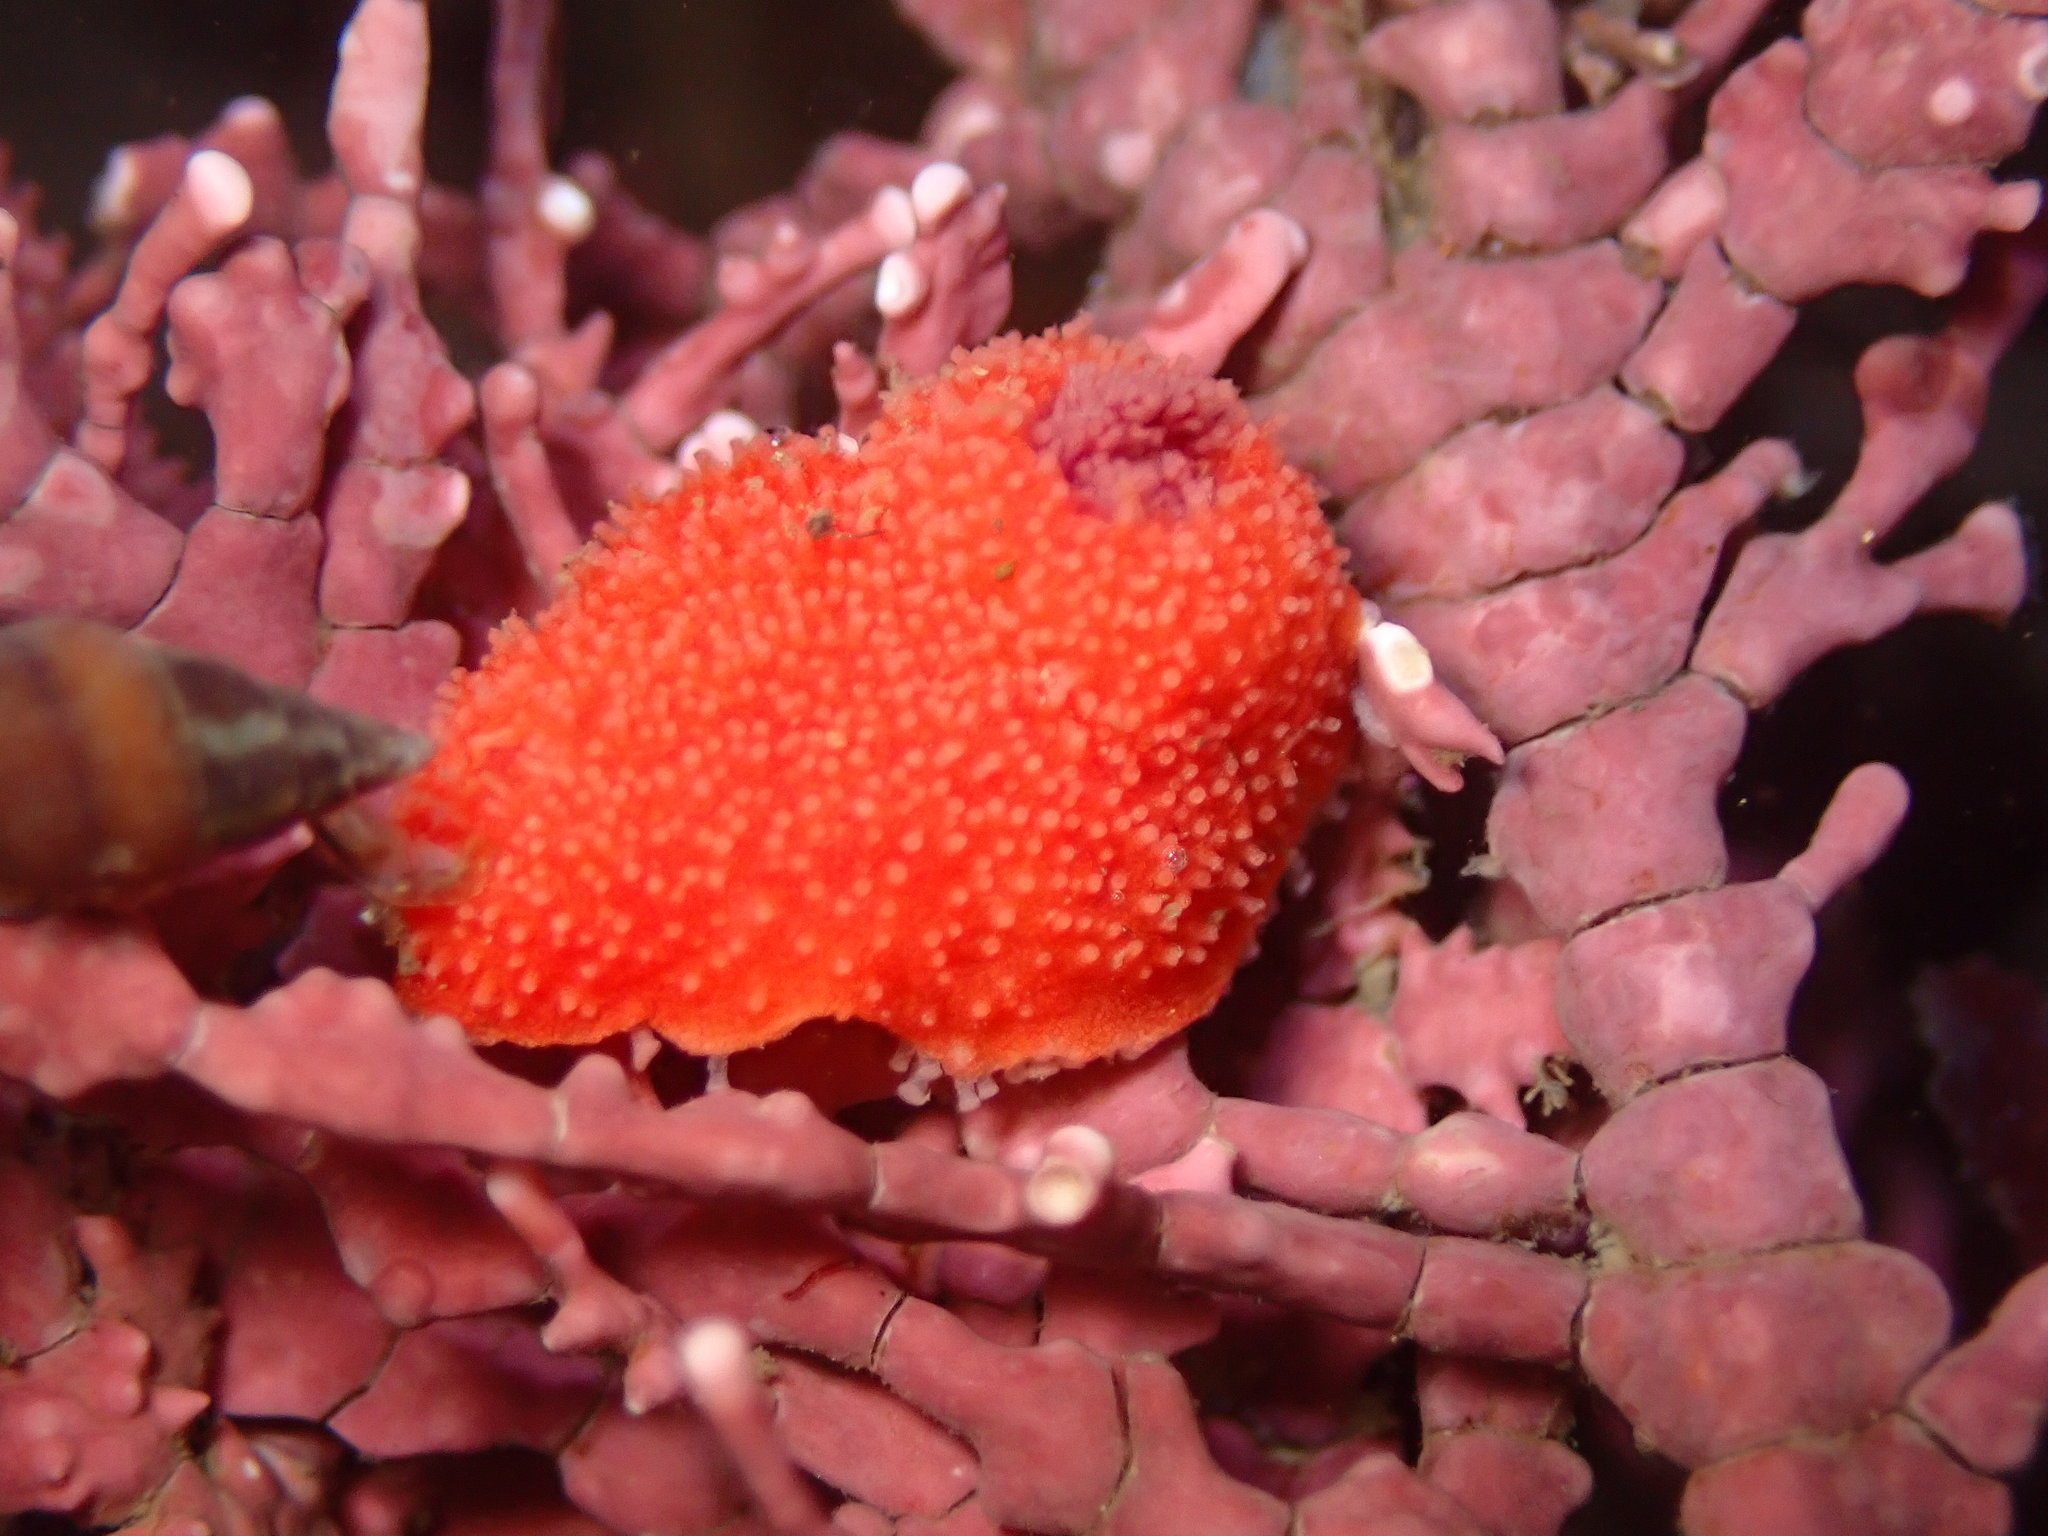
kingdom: Animalia
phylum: Echinodermata
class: Holothuroidea
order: Dendrochirotida
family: Psolidae
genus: Lissothuria
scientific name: Lissothuria nutriens
